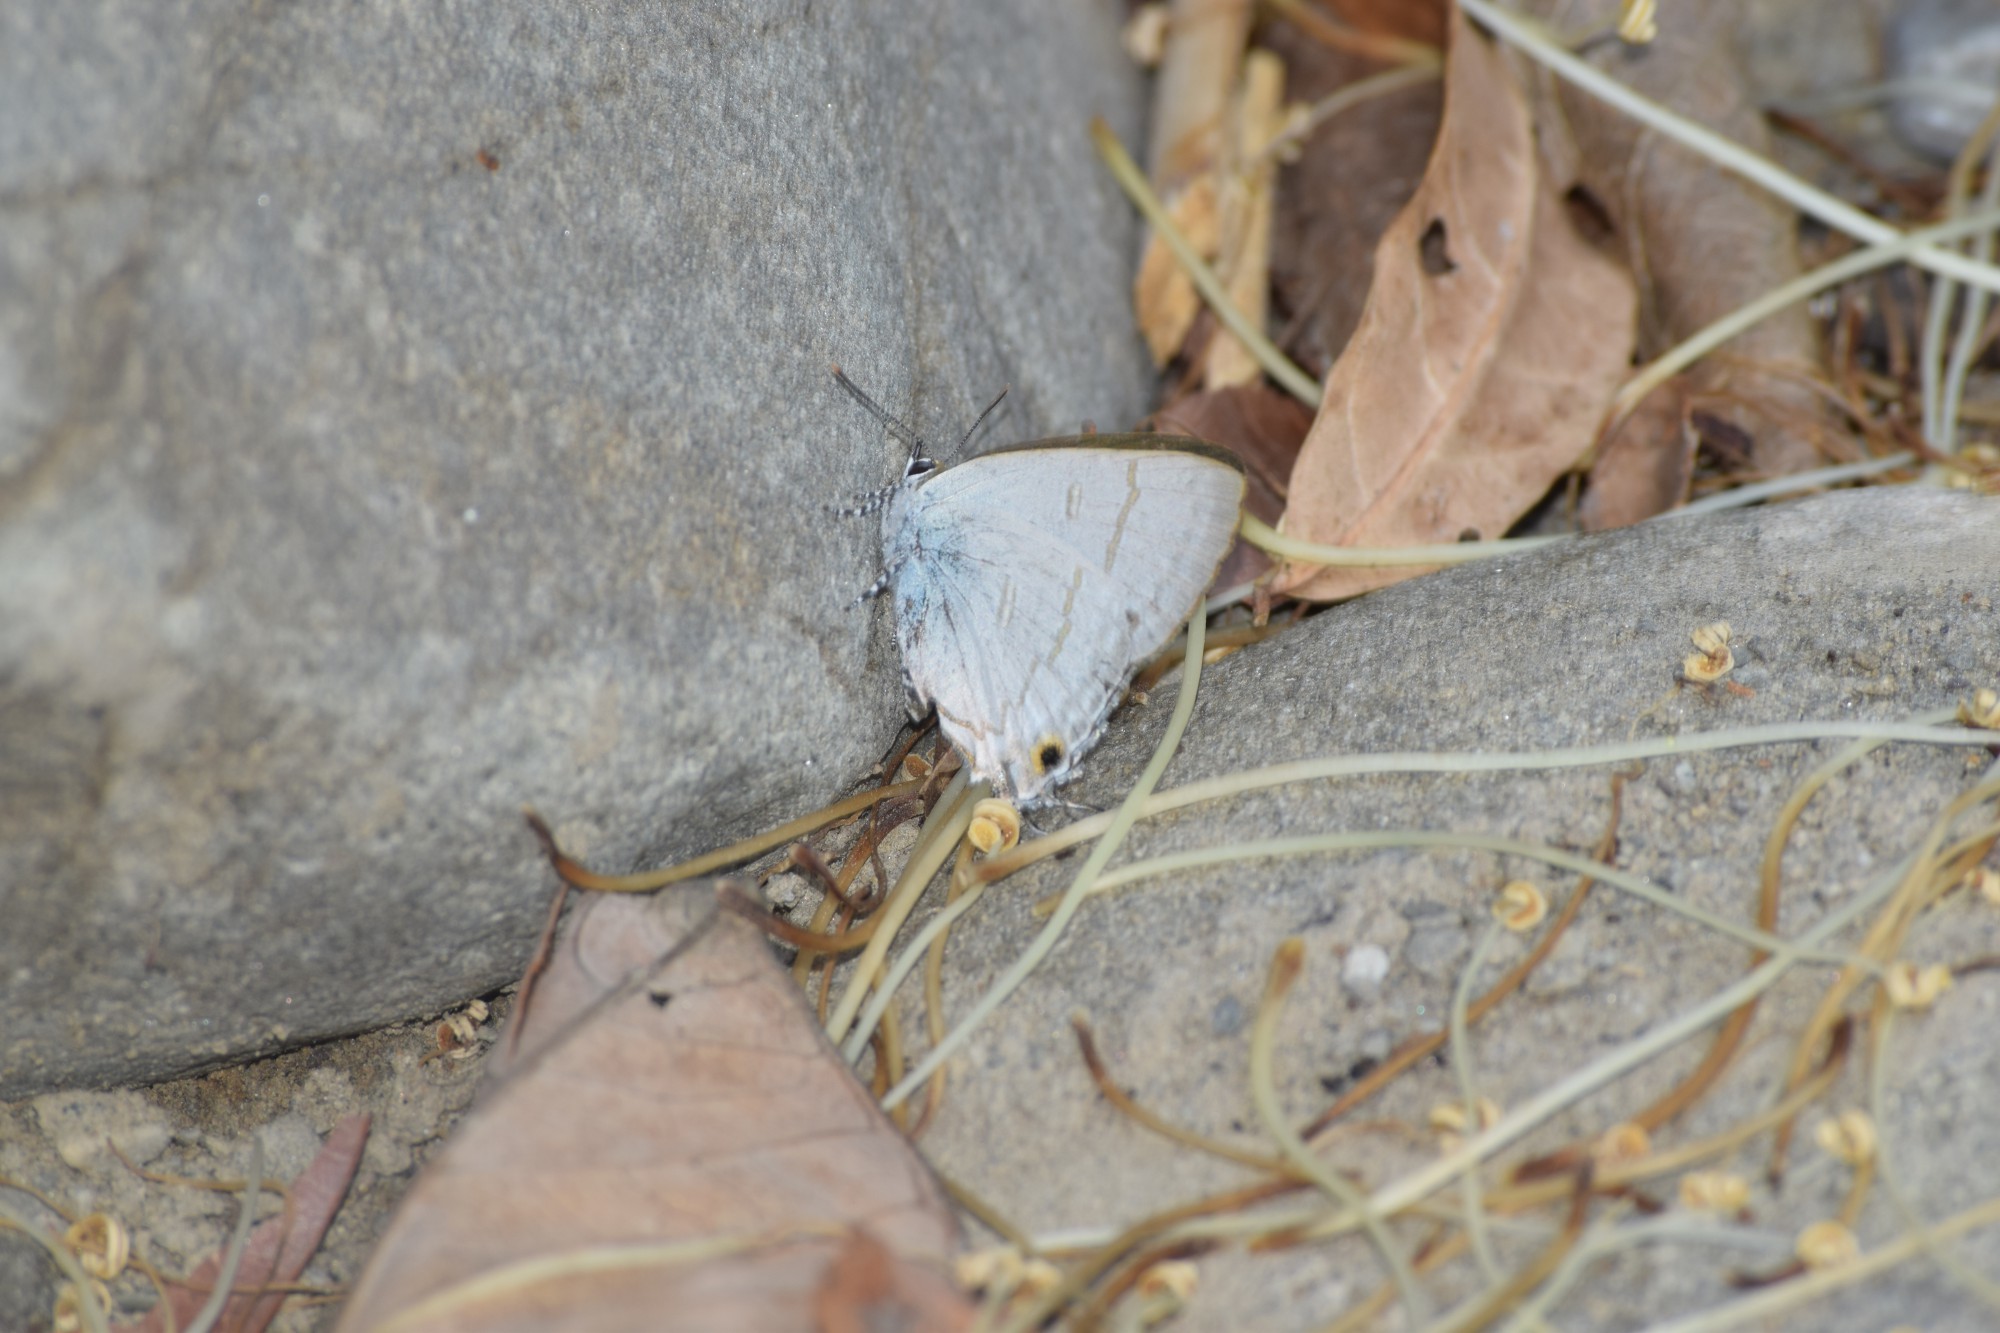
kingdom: Animalia
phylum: Arthropoda
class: Insecta
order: Lepidoptera
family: Lycaenidae
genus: Hypolycaena
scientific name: Hypolycaena erylus
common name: Common tit
